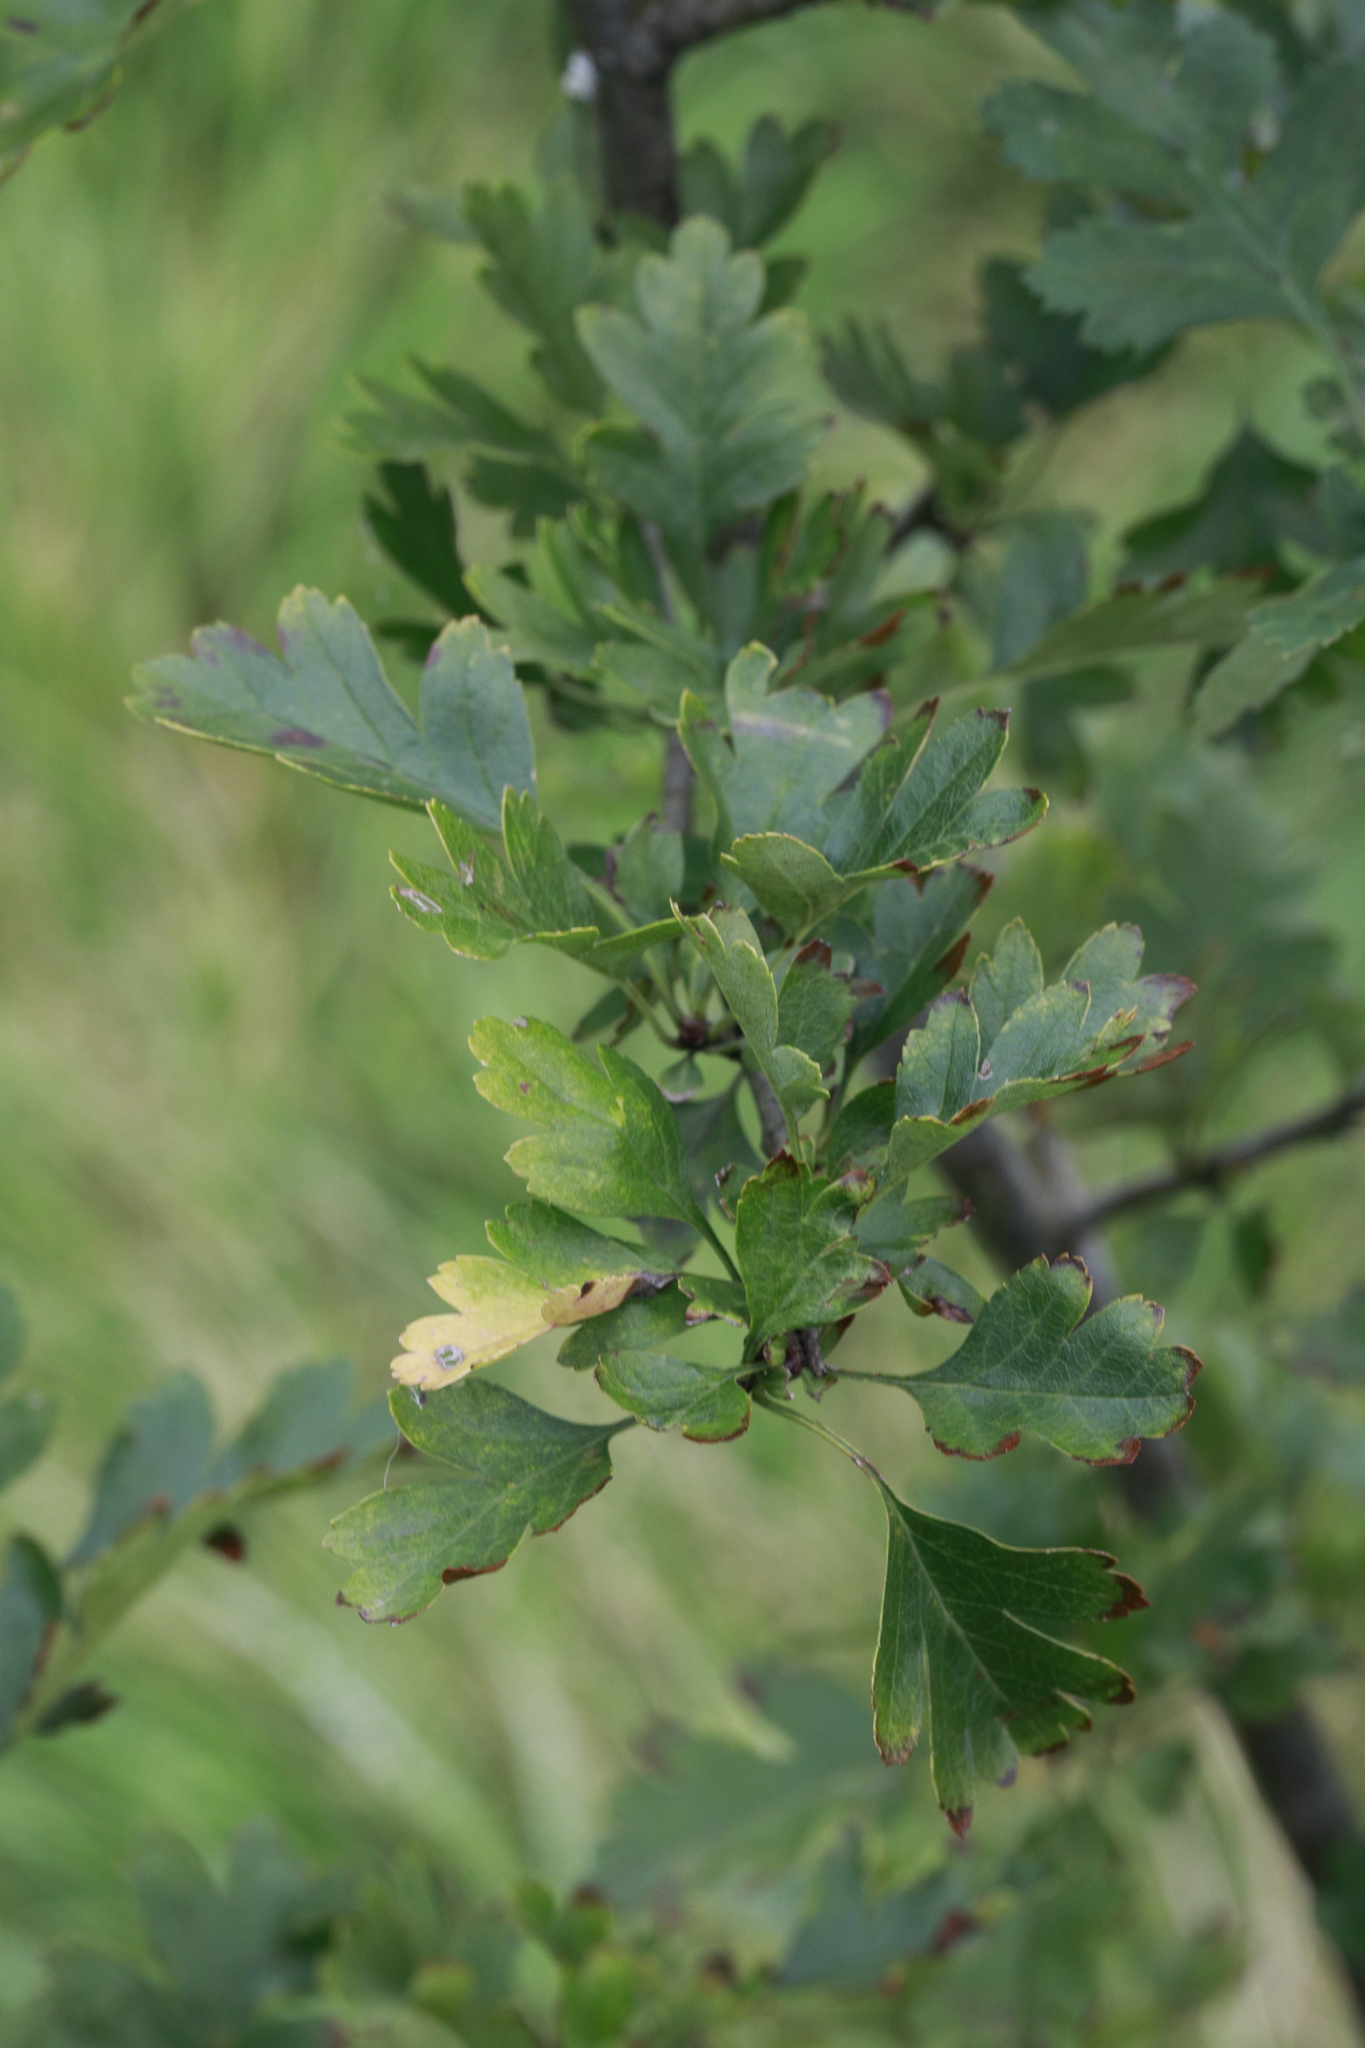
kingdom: Plantae
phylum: Tracheophyta
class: Magnoliopsida
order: Rosales
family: Rosaceae
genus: Crataegus
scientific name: Crataegus monogyna
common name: Hawthorn
